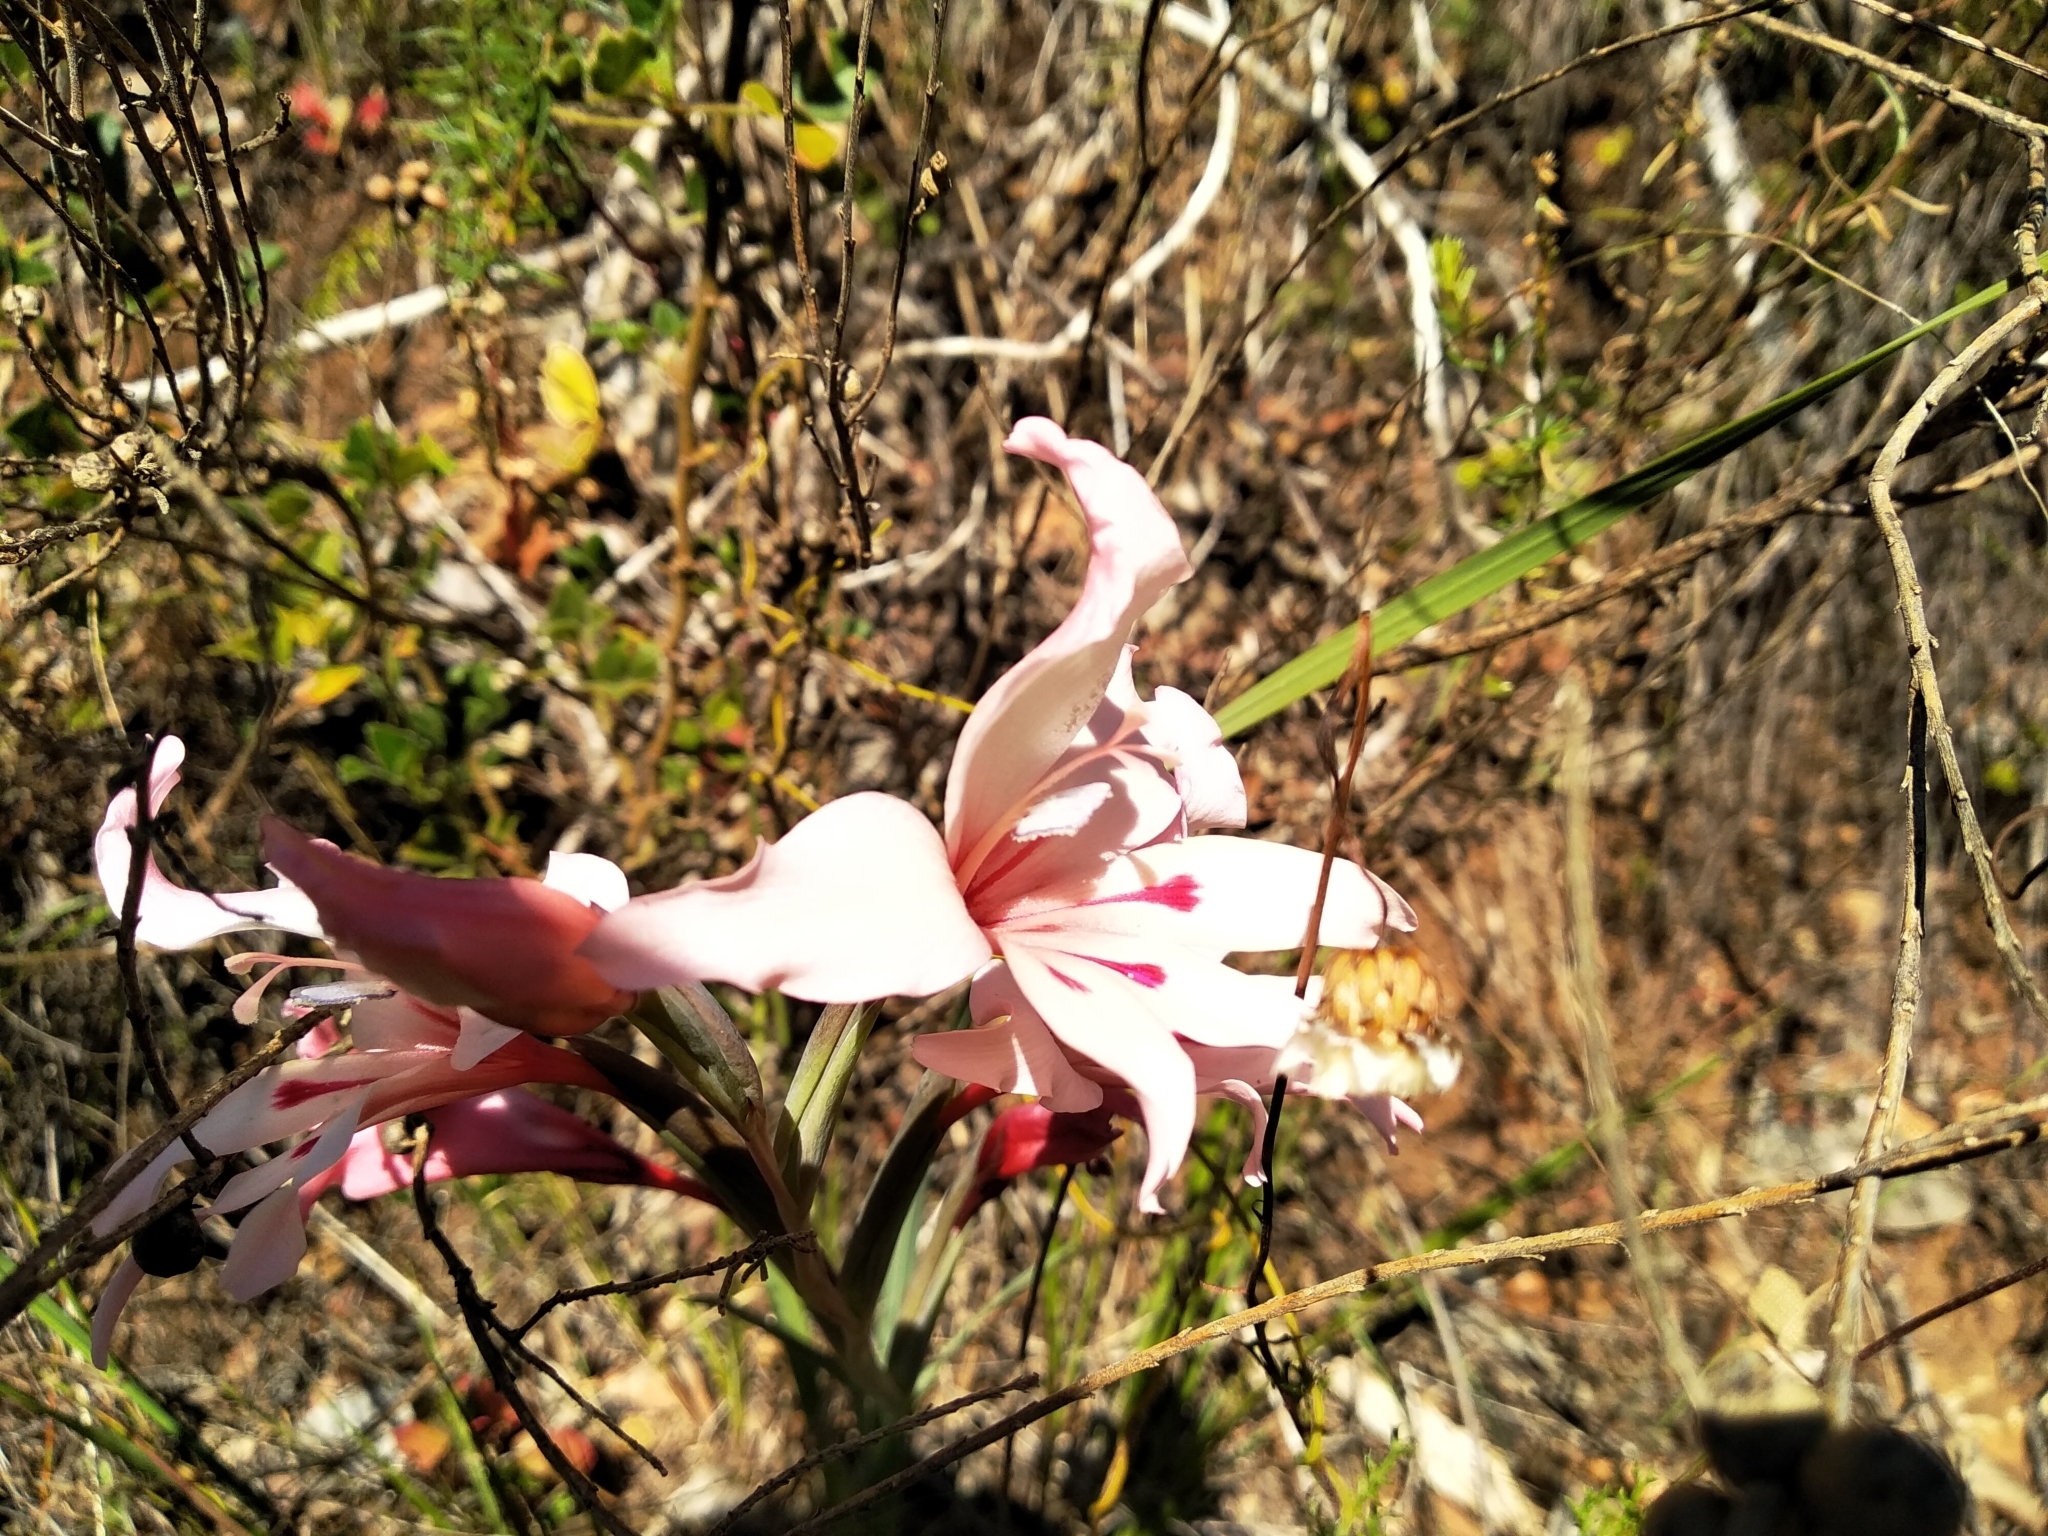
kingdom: Plantae
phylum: Tracheophyta
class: Liliopsida
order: Asparagales
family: Iridaceae
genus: Gladiolus
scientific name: Gladiolus carneus
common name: Painted-lady
